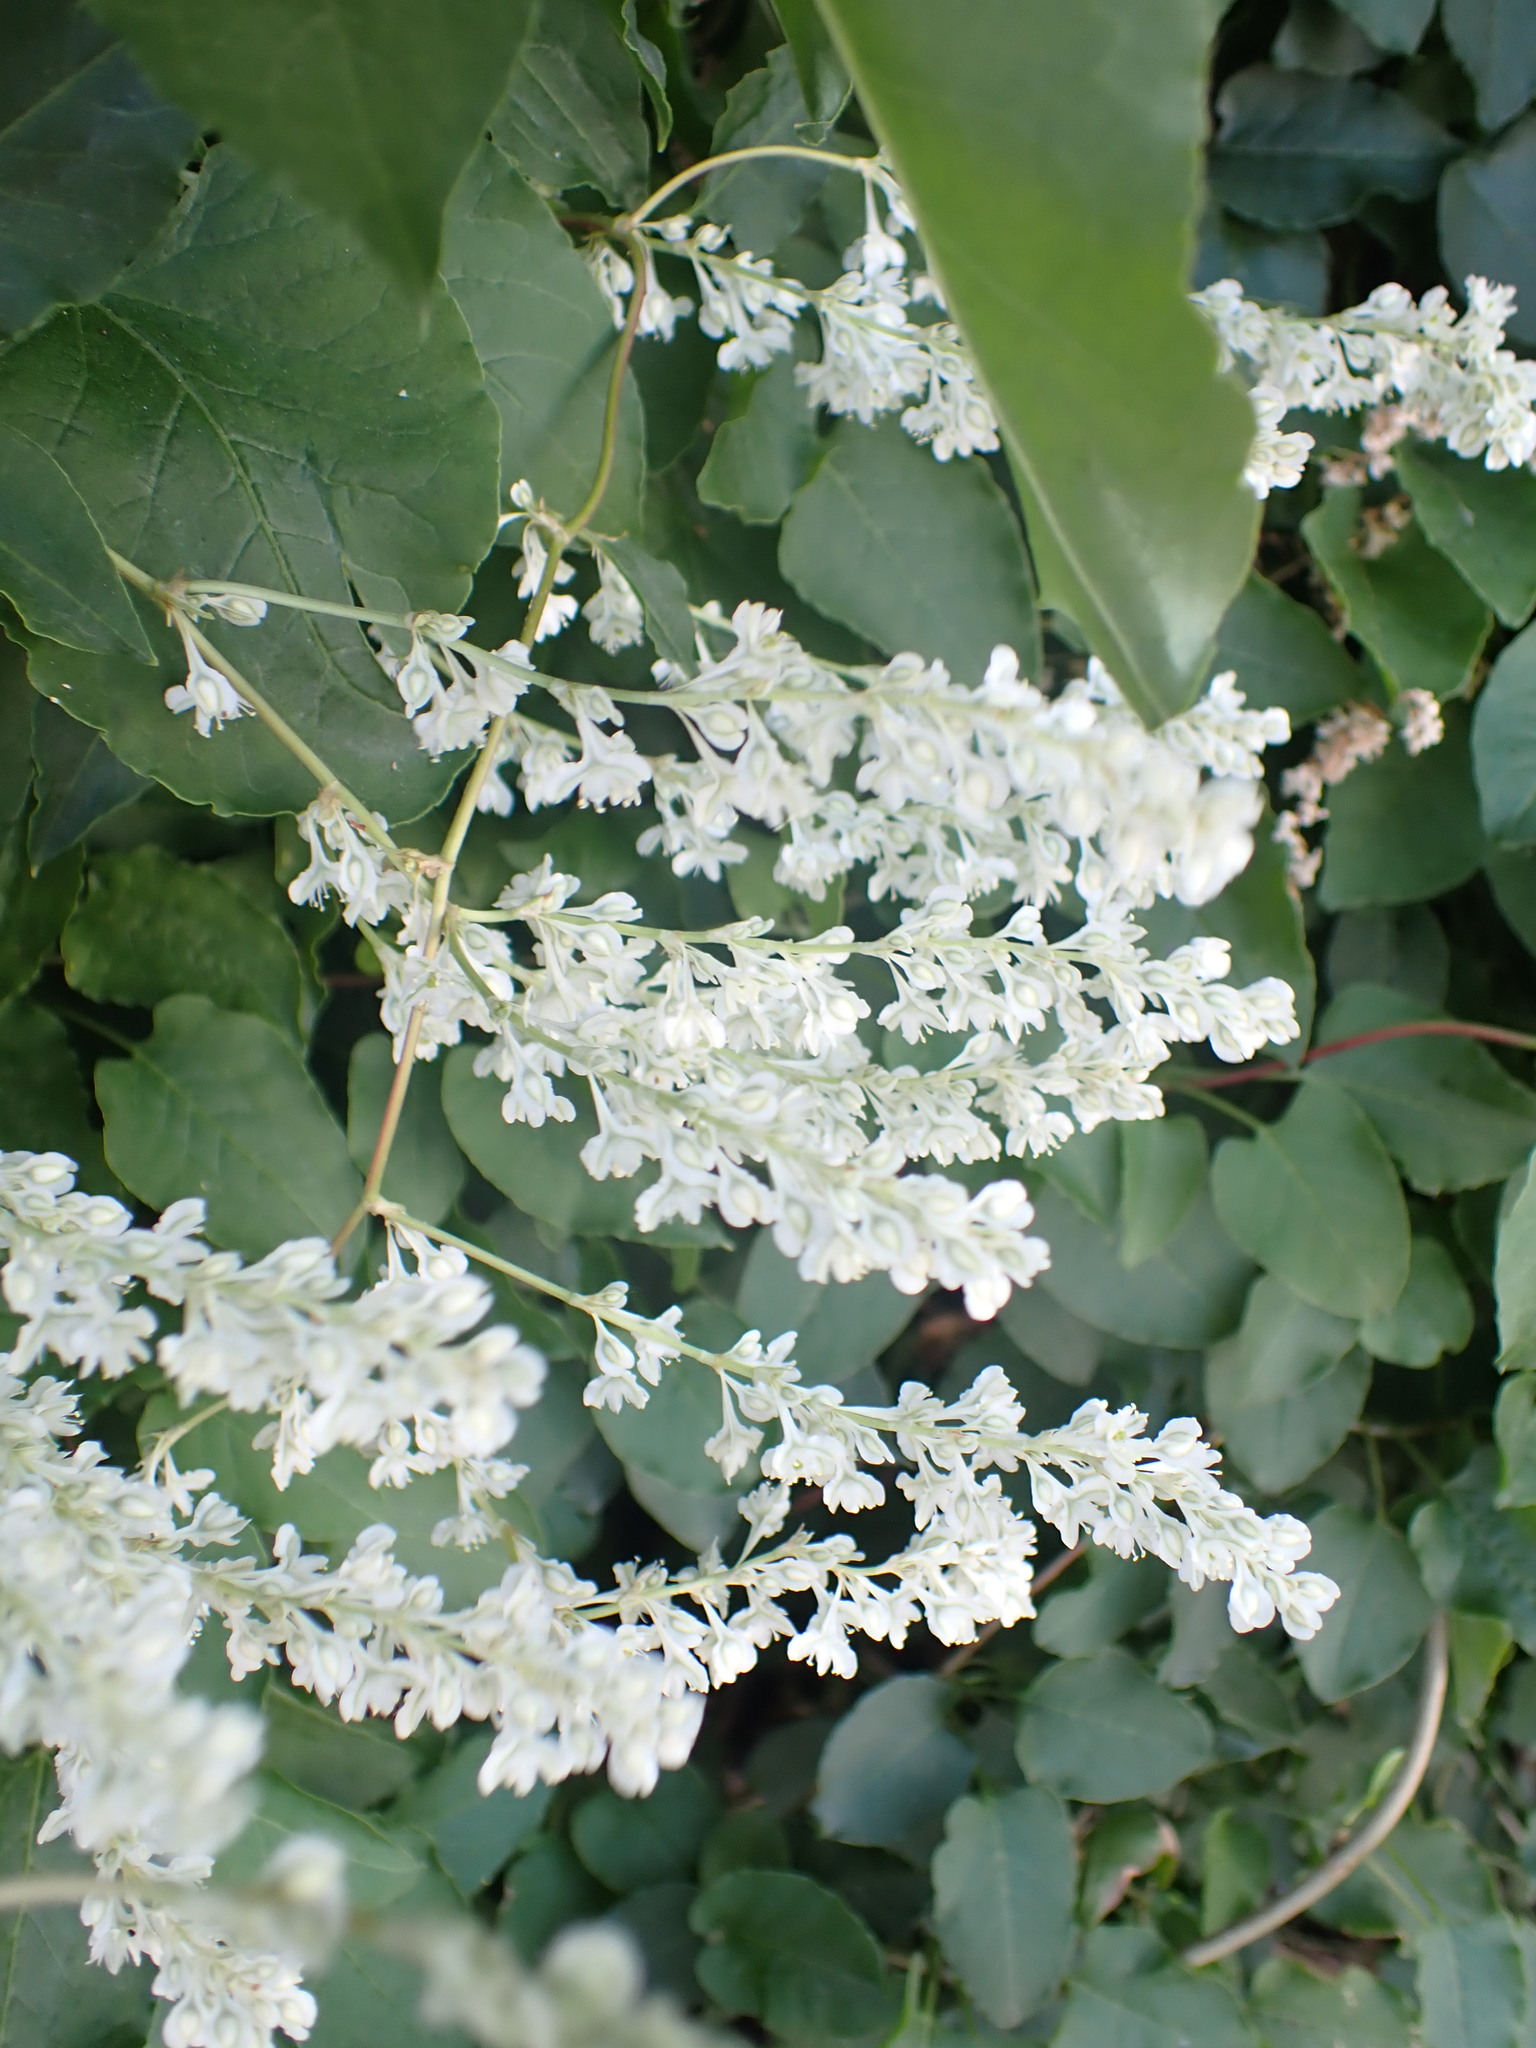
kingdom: Plantae
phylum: Tracheophyta
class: Magnoliopsida
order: Caryophyllales
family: Polygonaceae
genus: Fallopia
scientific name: Fallopia baldschuanica
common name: Russian-vine
